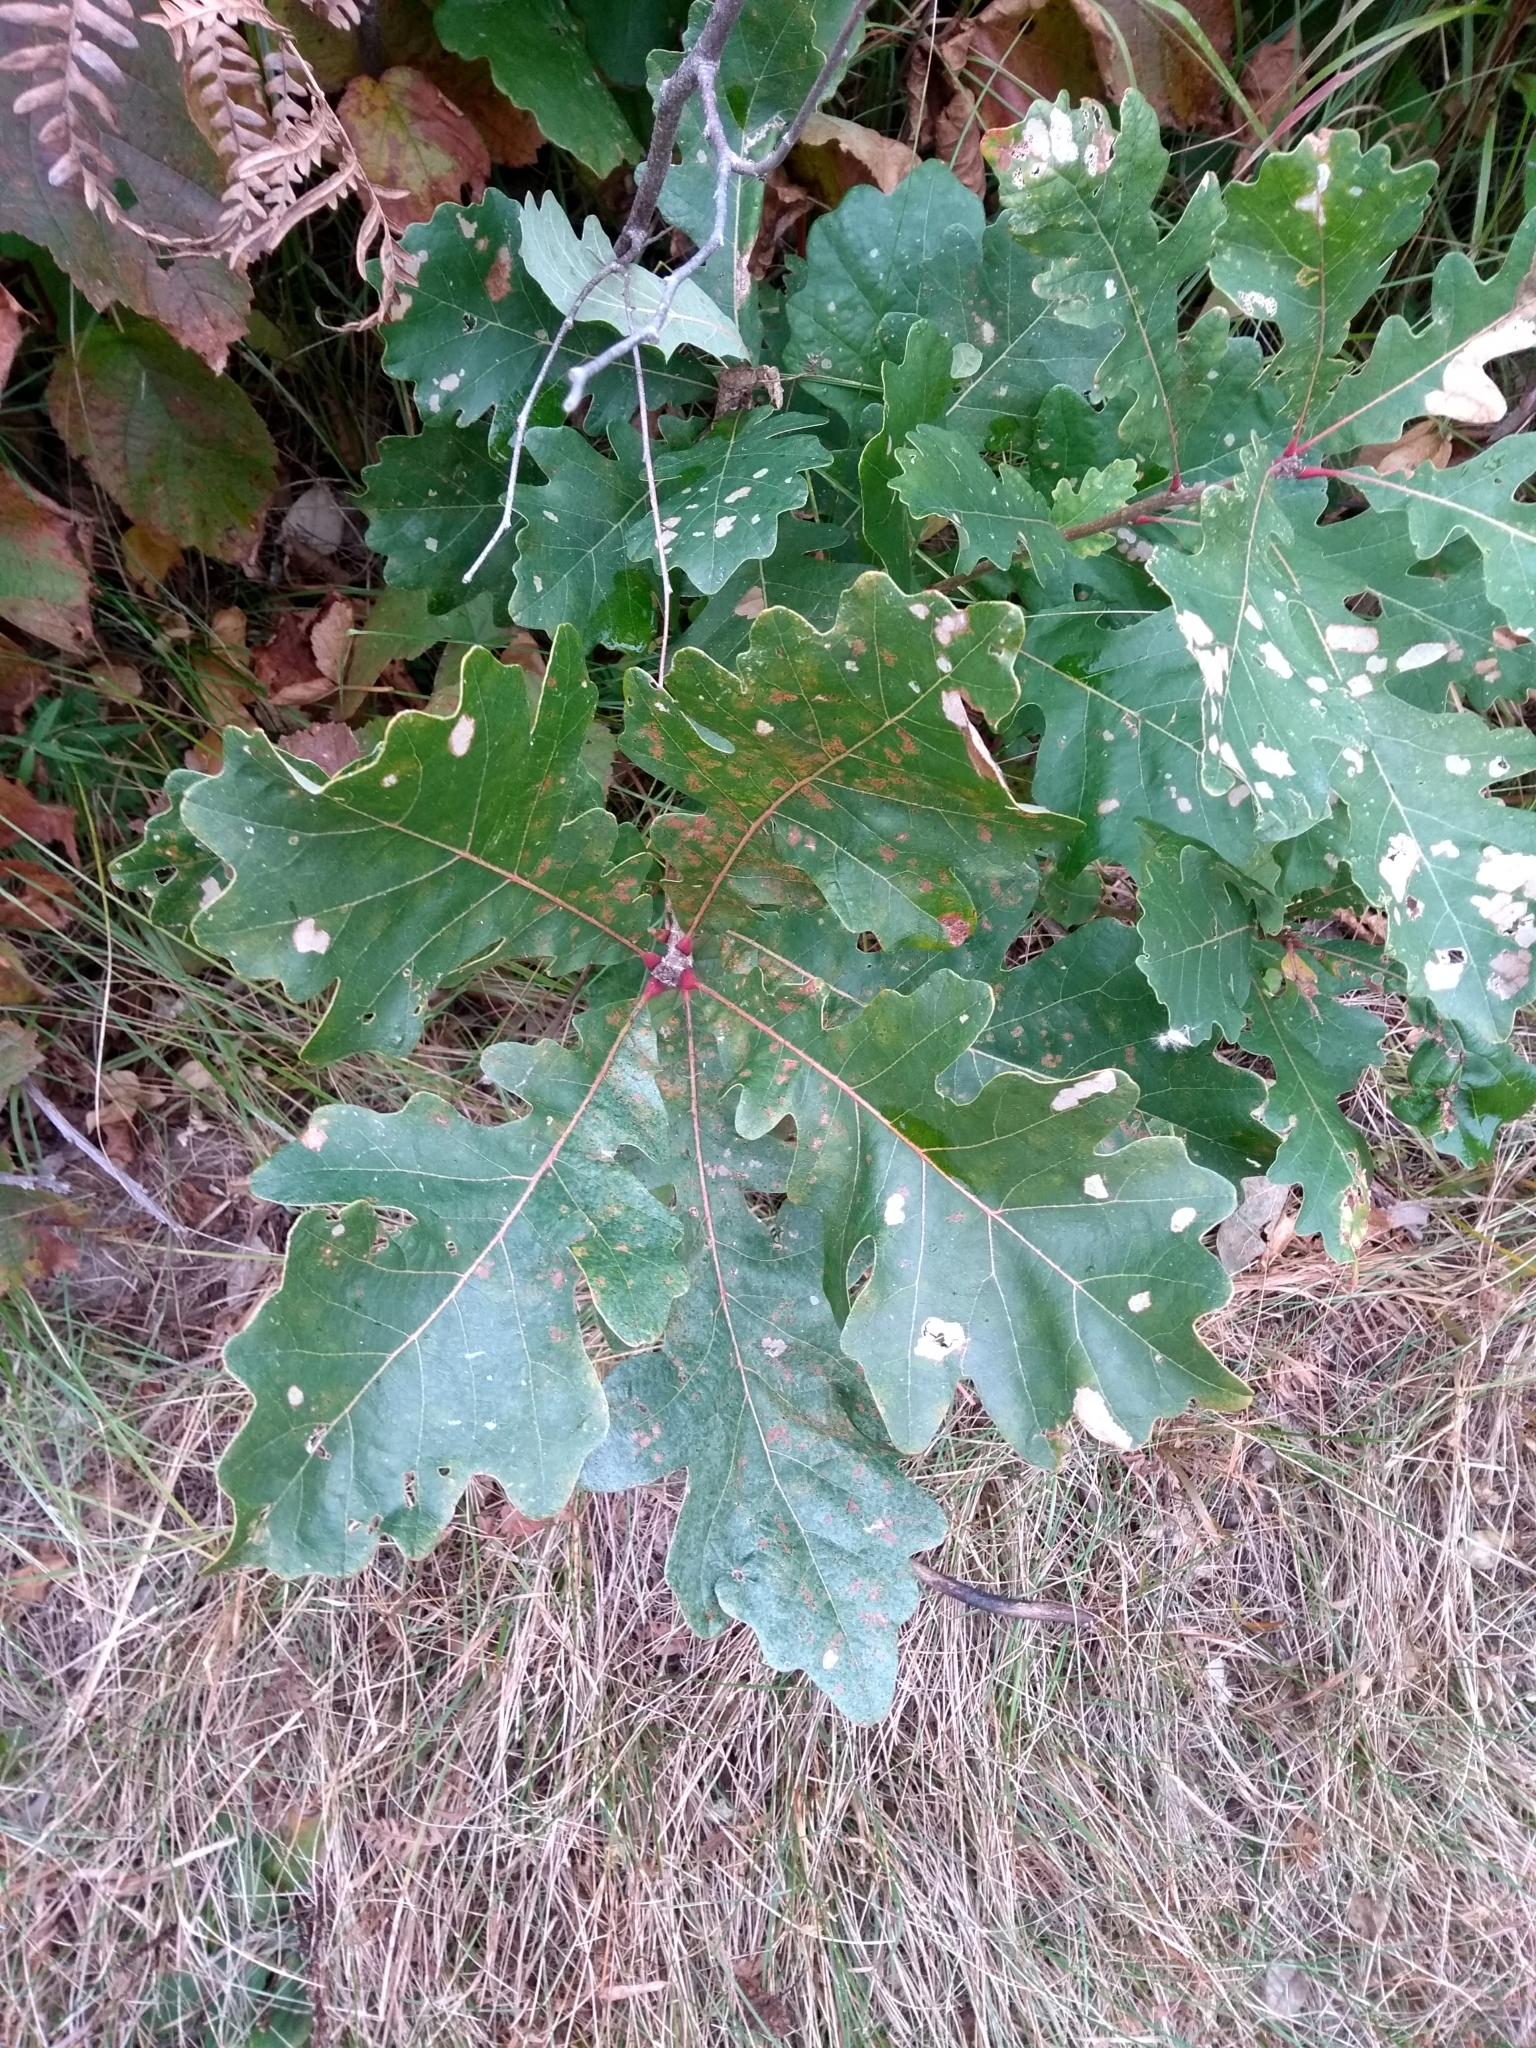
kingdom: Plantae
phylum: Tracheophyta
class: Magnoliopsida
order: Fagales
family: Fagaceae
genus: Quercus
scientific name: Quercus macrocarpa
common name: Bur oak
